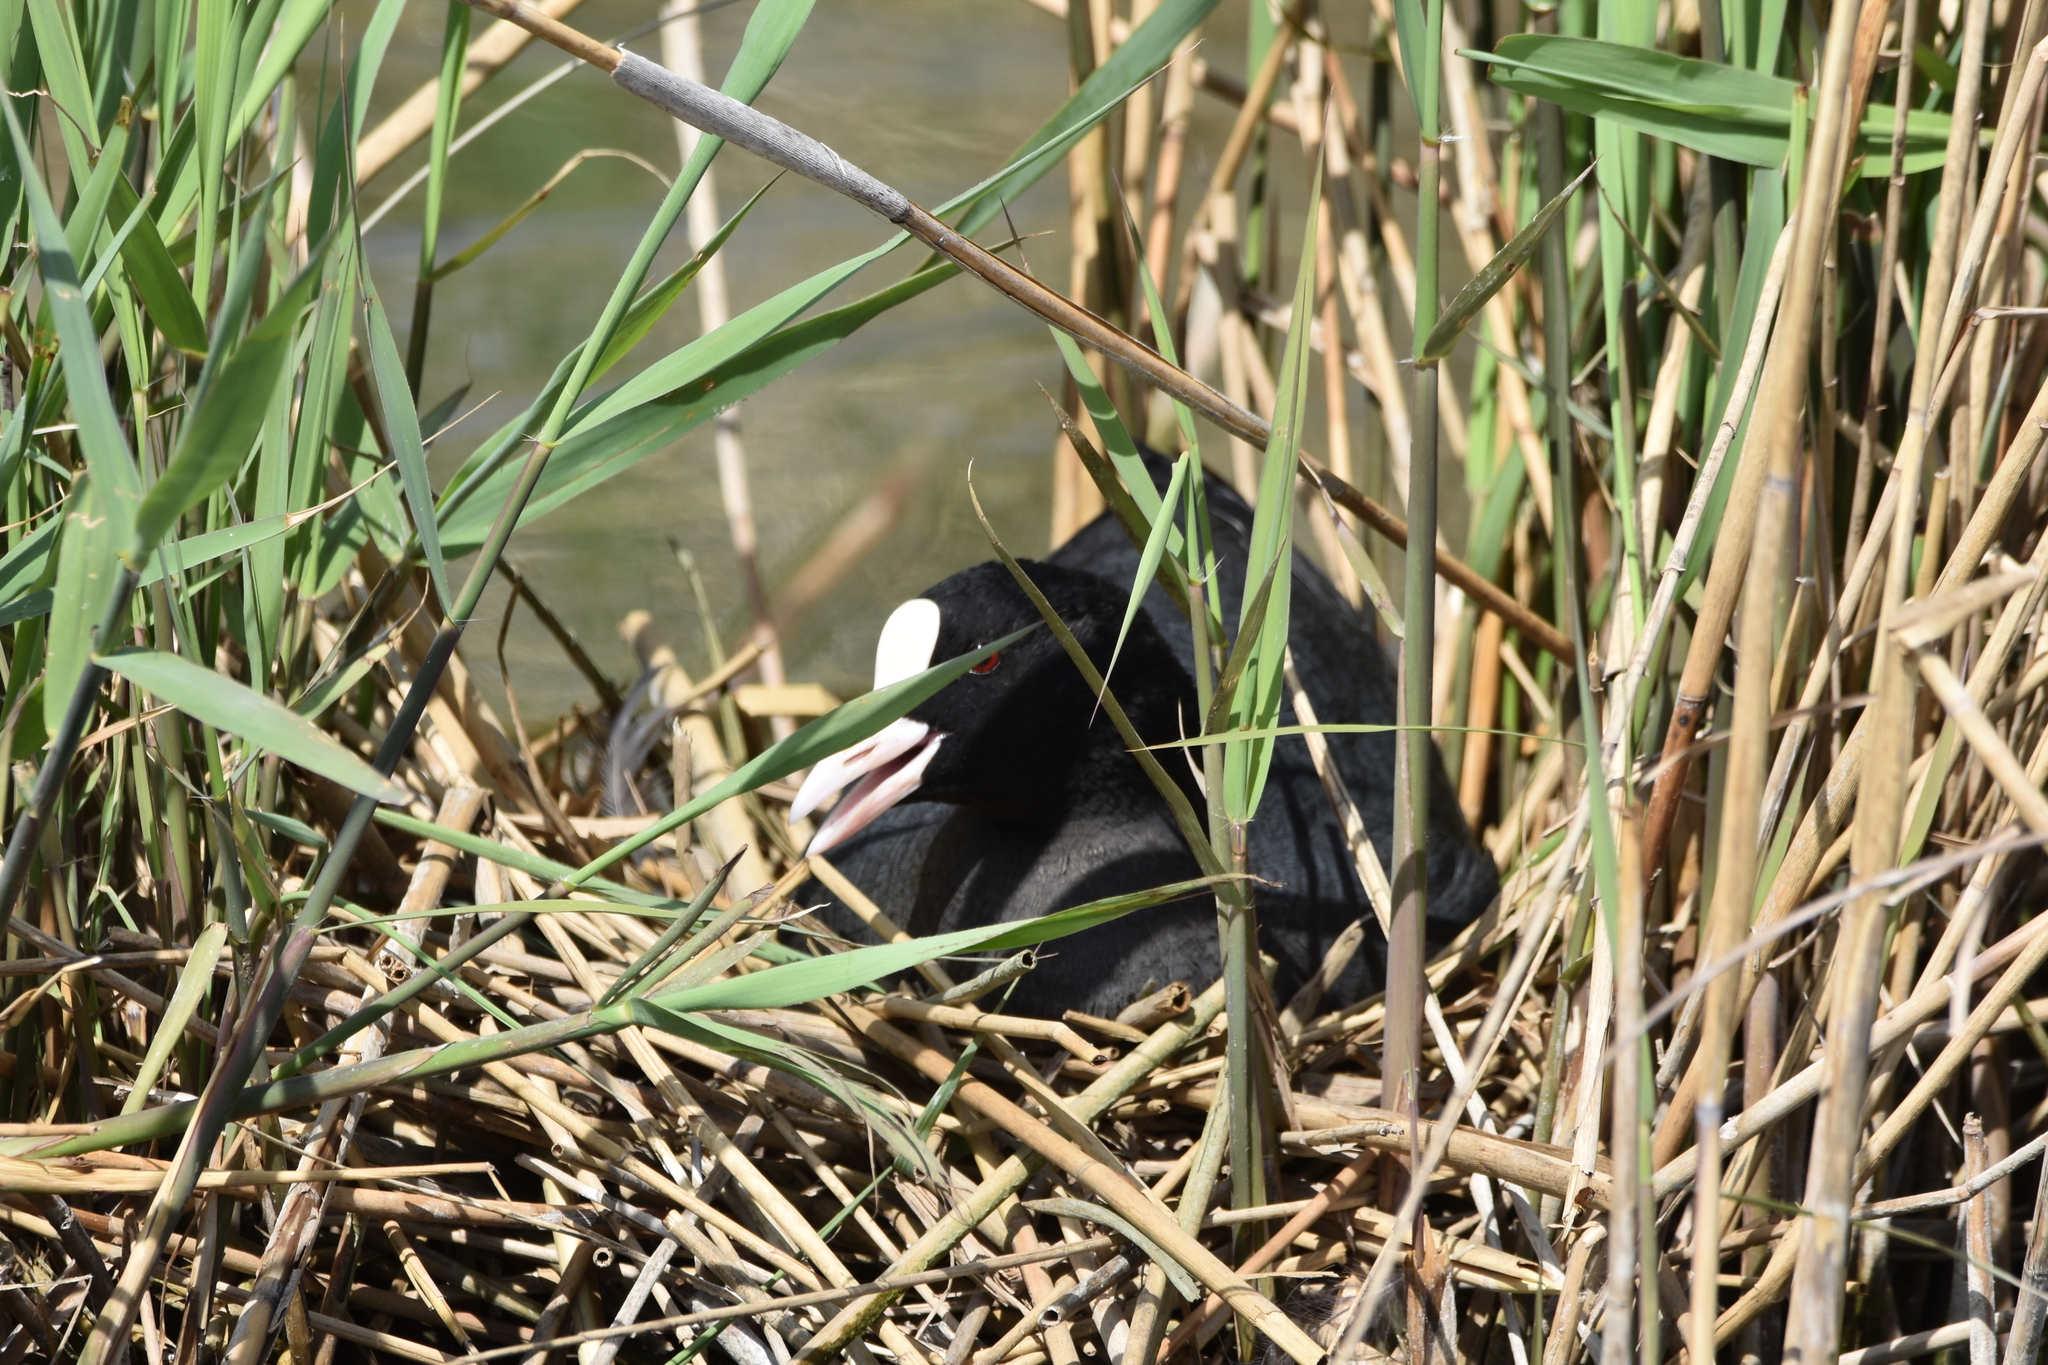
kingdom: Animalia
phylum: Chordata
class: Aves
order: Gruiformes
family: Rallidae
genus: Fulica
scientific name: Fulica atra
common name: Eurasian coot
